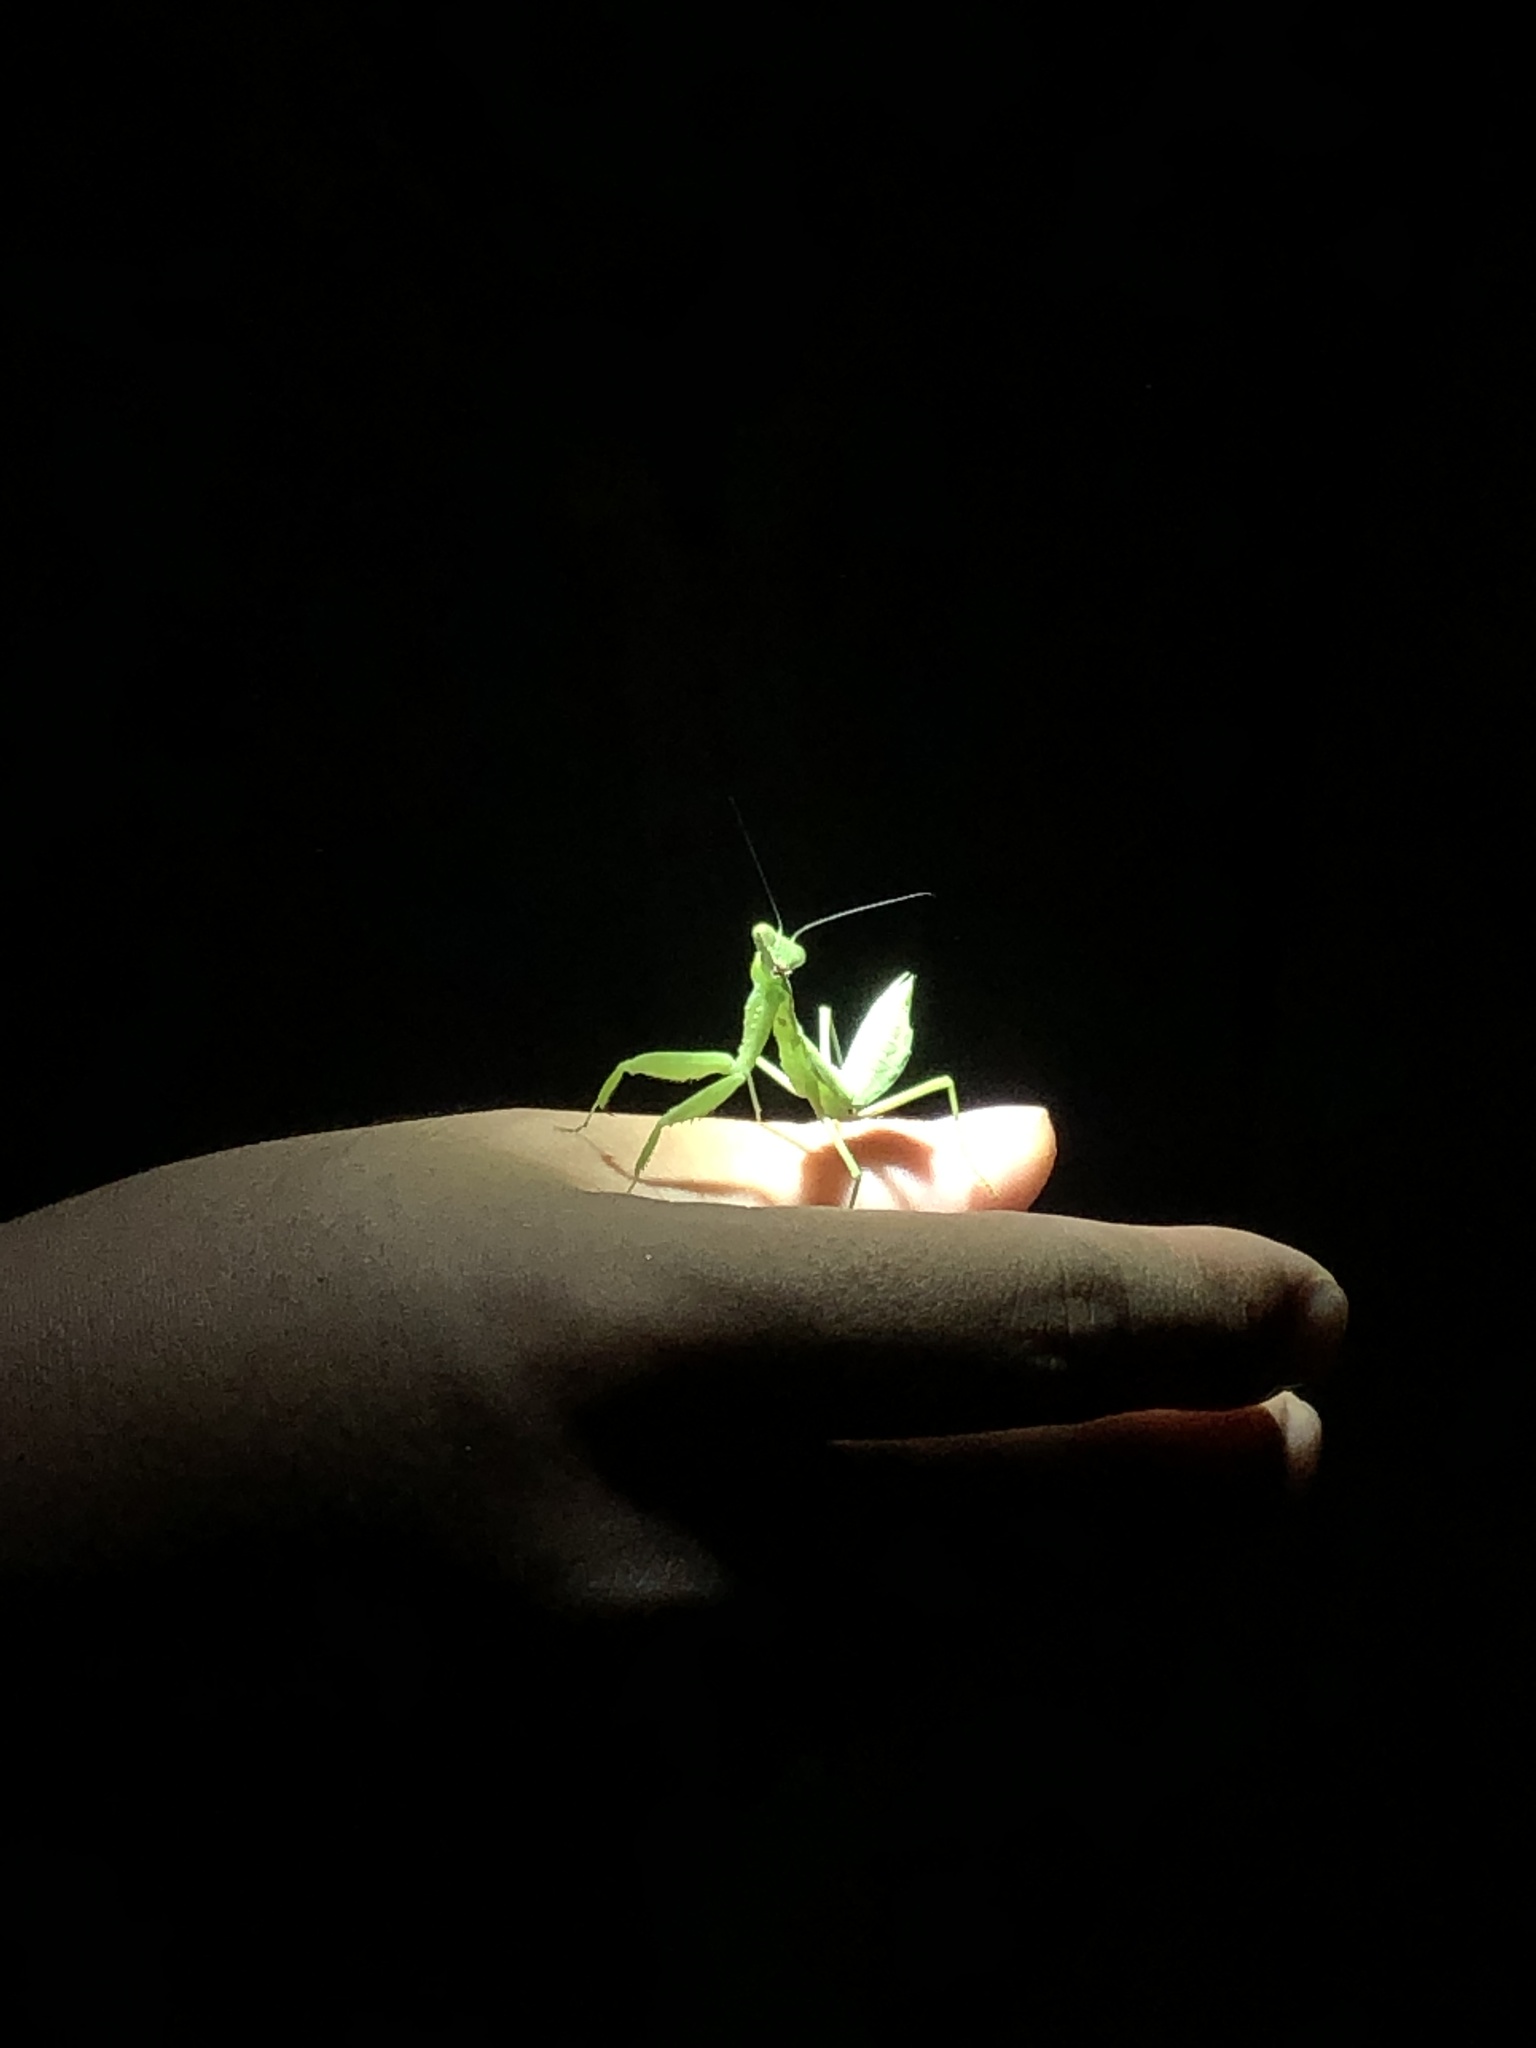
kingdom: Animalia
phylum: Arthropoda
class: Insecta
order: Mantodea
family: Mantidae
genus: Hierodula
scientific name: Hierodula patellifera
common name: Asian mantis
